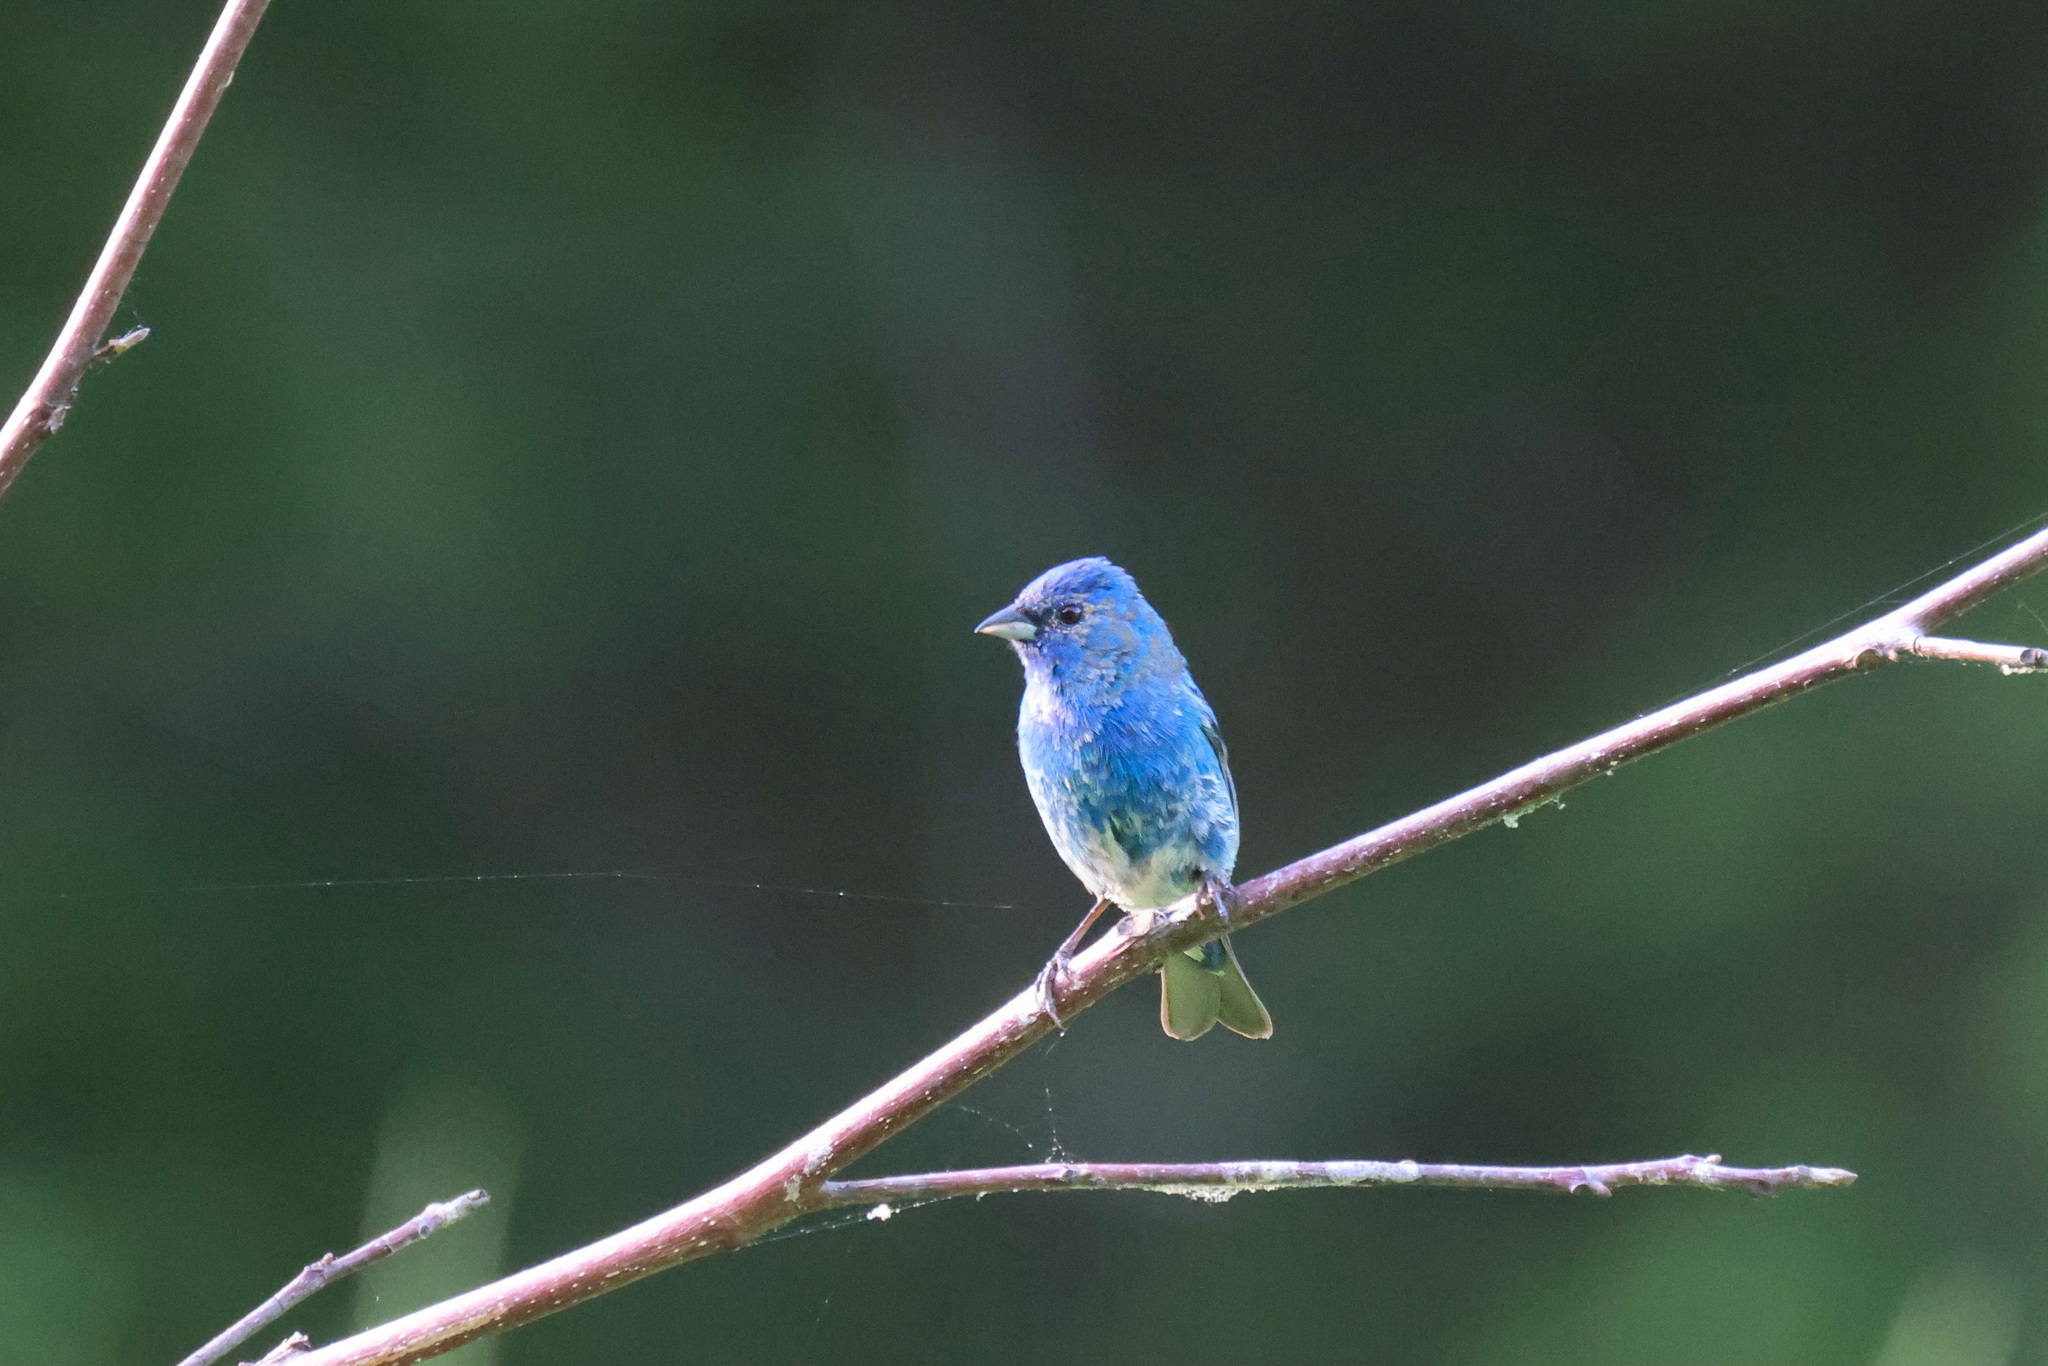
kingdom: Animalia
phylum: Chordata
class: Aves
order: Passeriformes
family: Cardinalidae
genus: Passerina
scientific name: Passerina cyanea
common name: Indigo bunting
